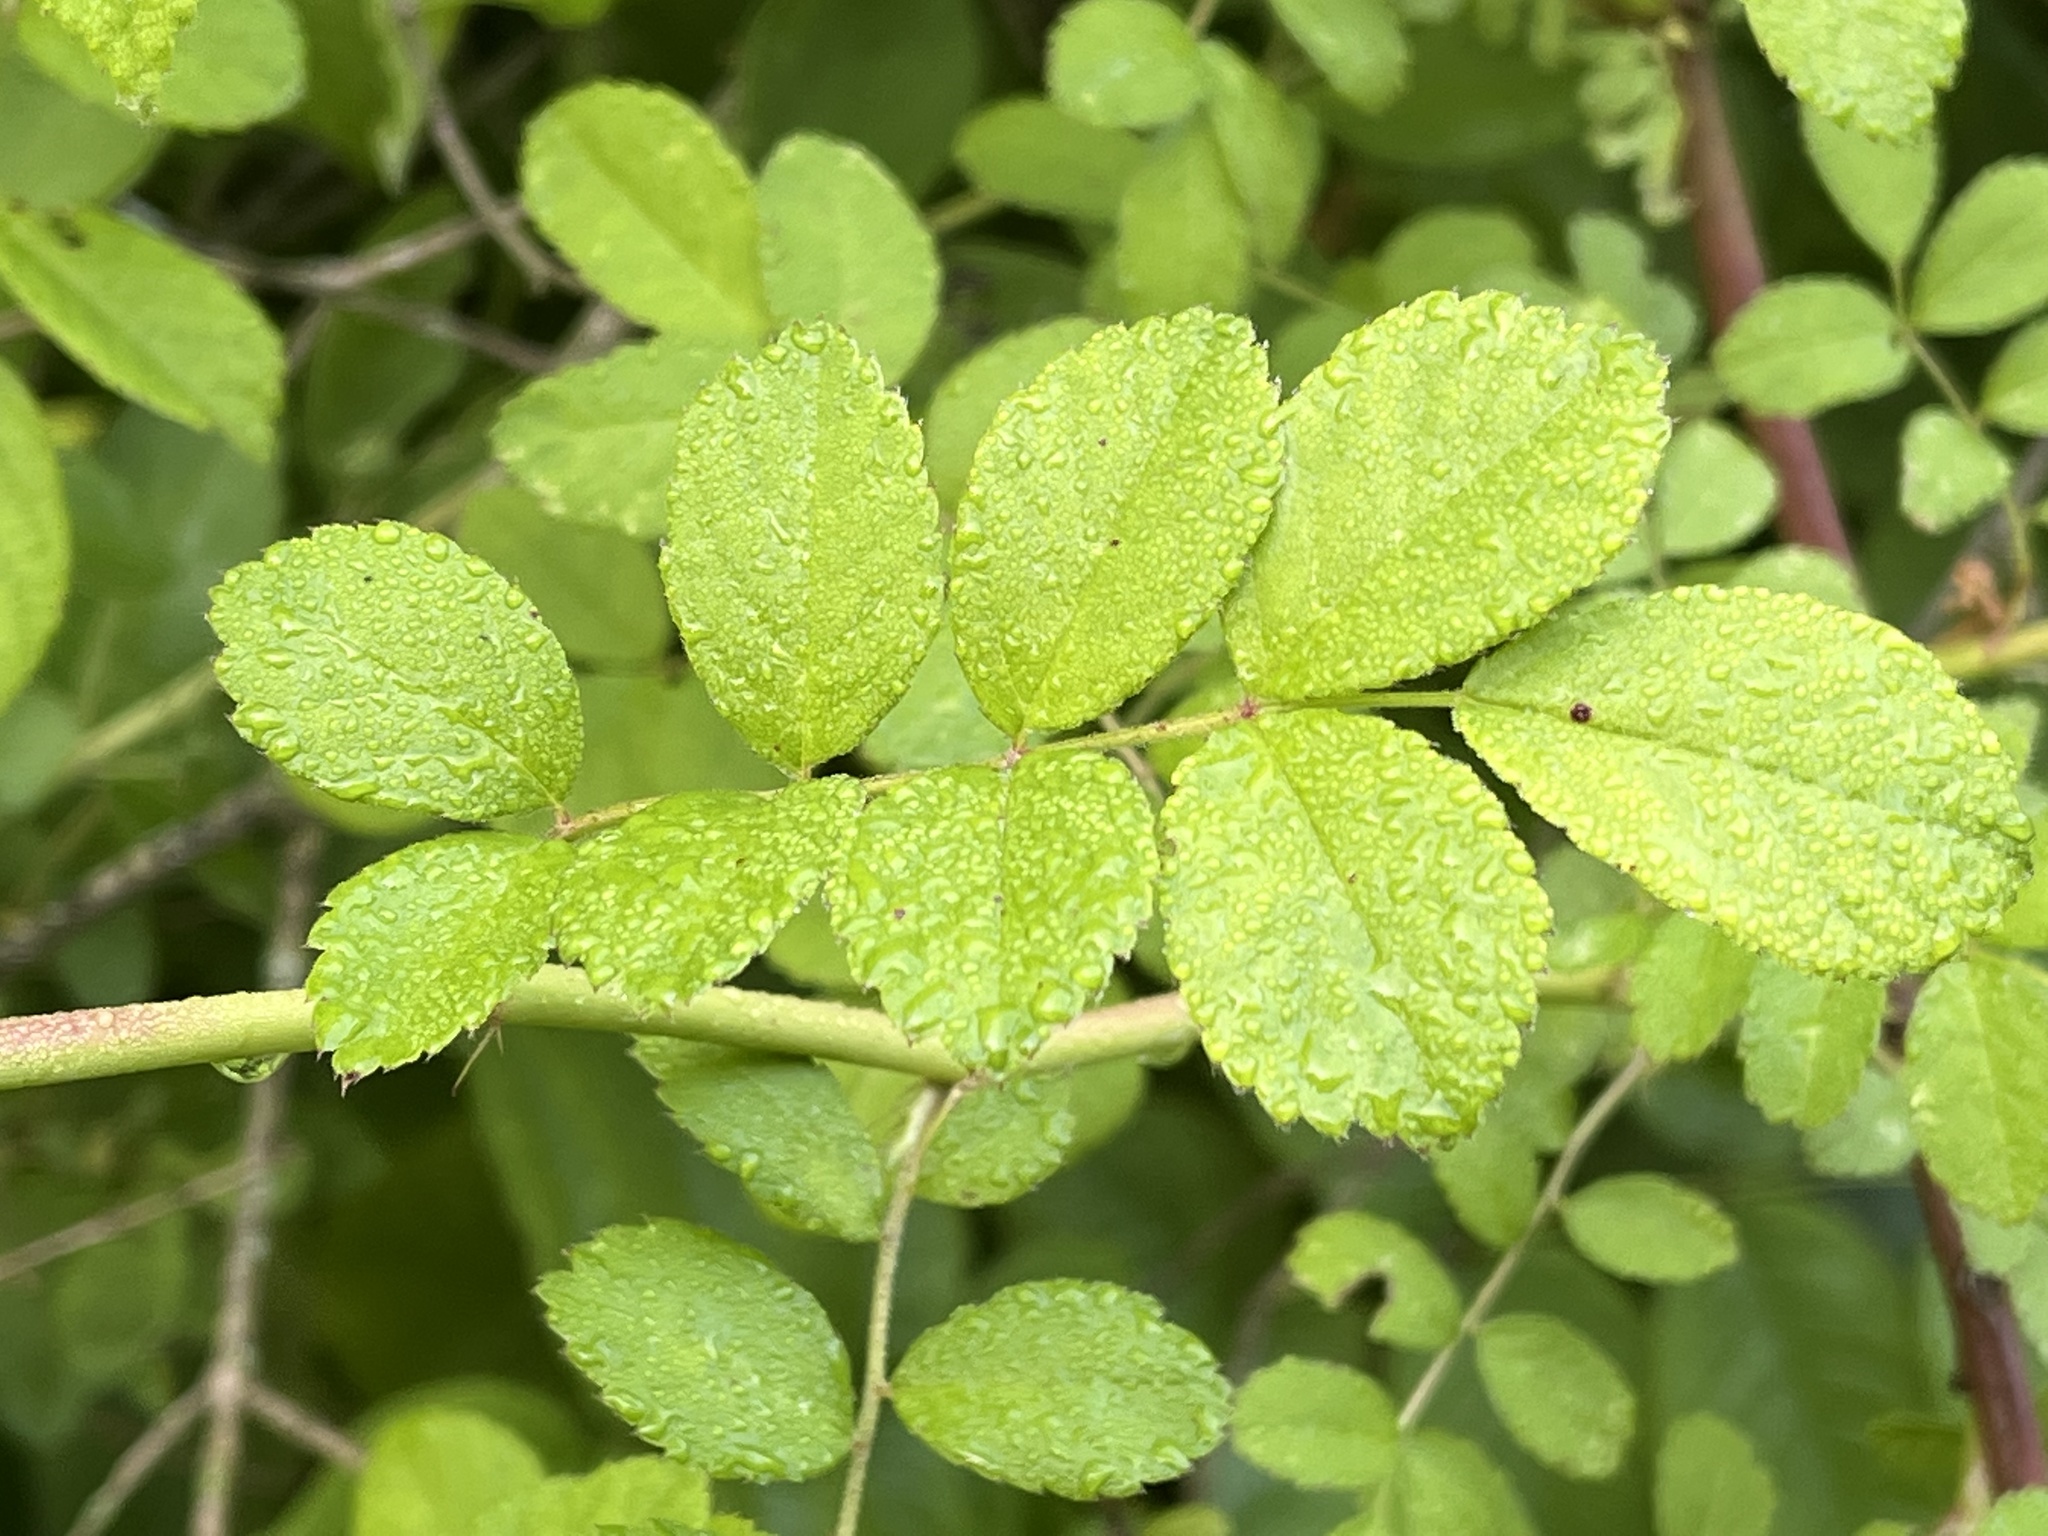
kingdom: Plantae
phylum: Tracheophyta
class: Magnoliopsida
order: Rosales
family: Rosaceae
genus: Rosa
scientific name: Rosa multiflora
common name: Multiflora rose
